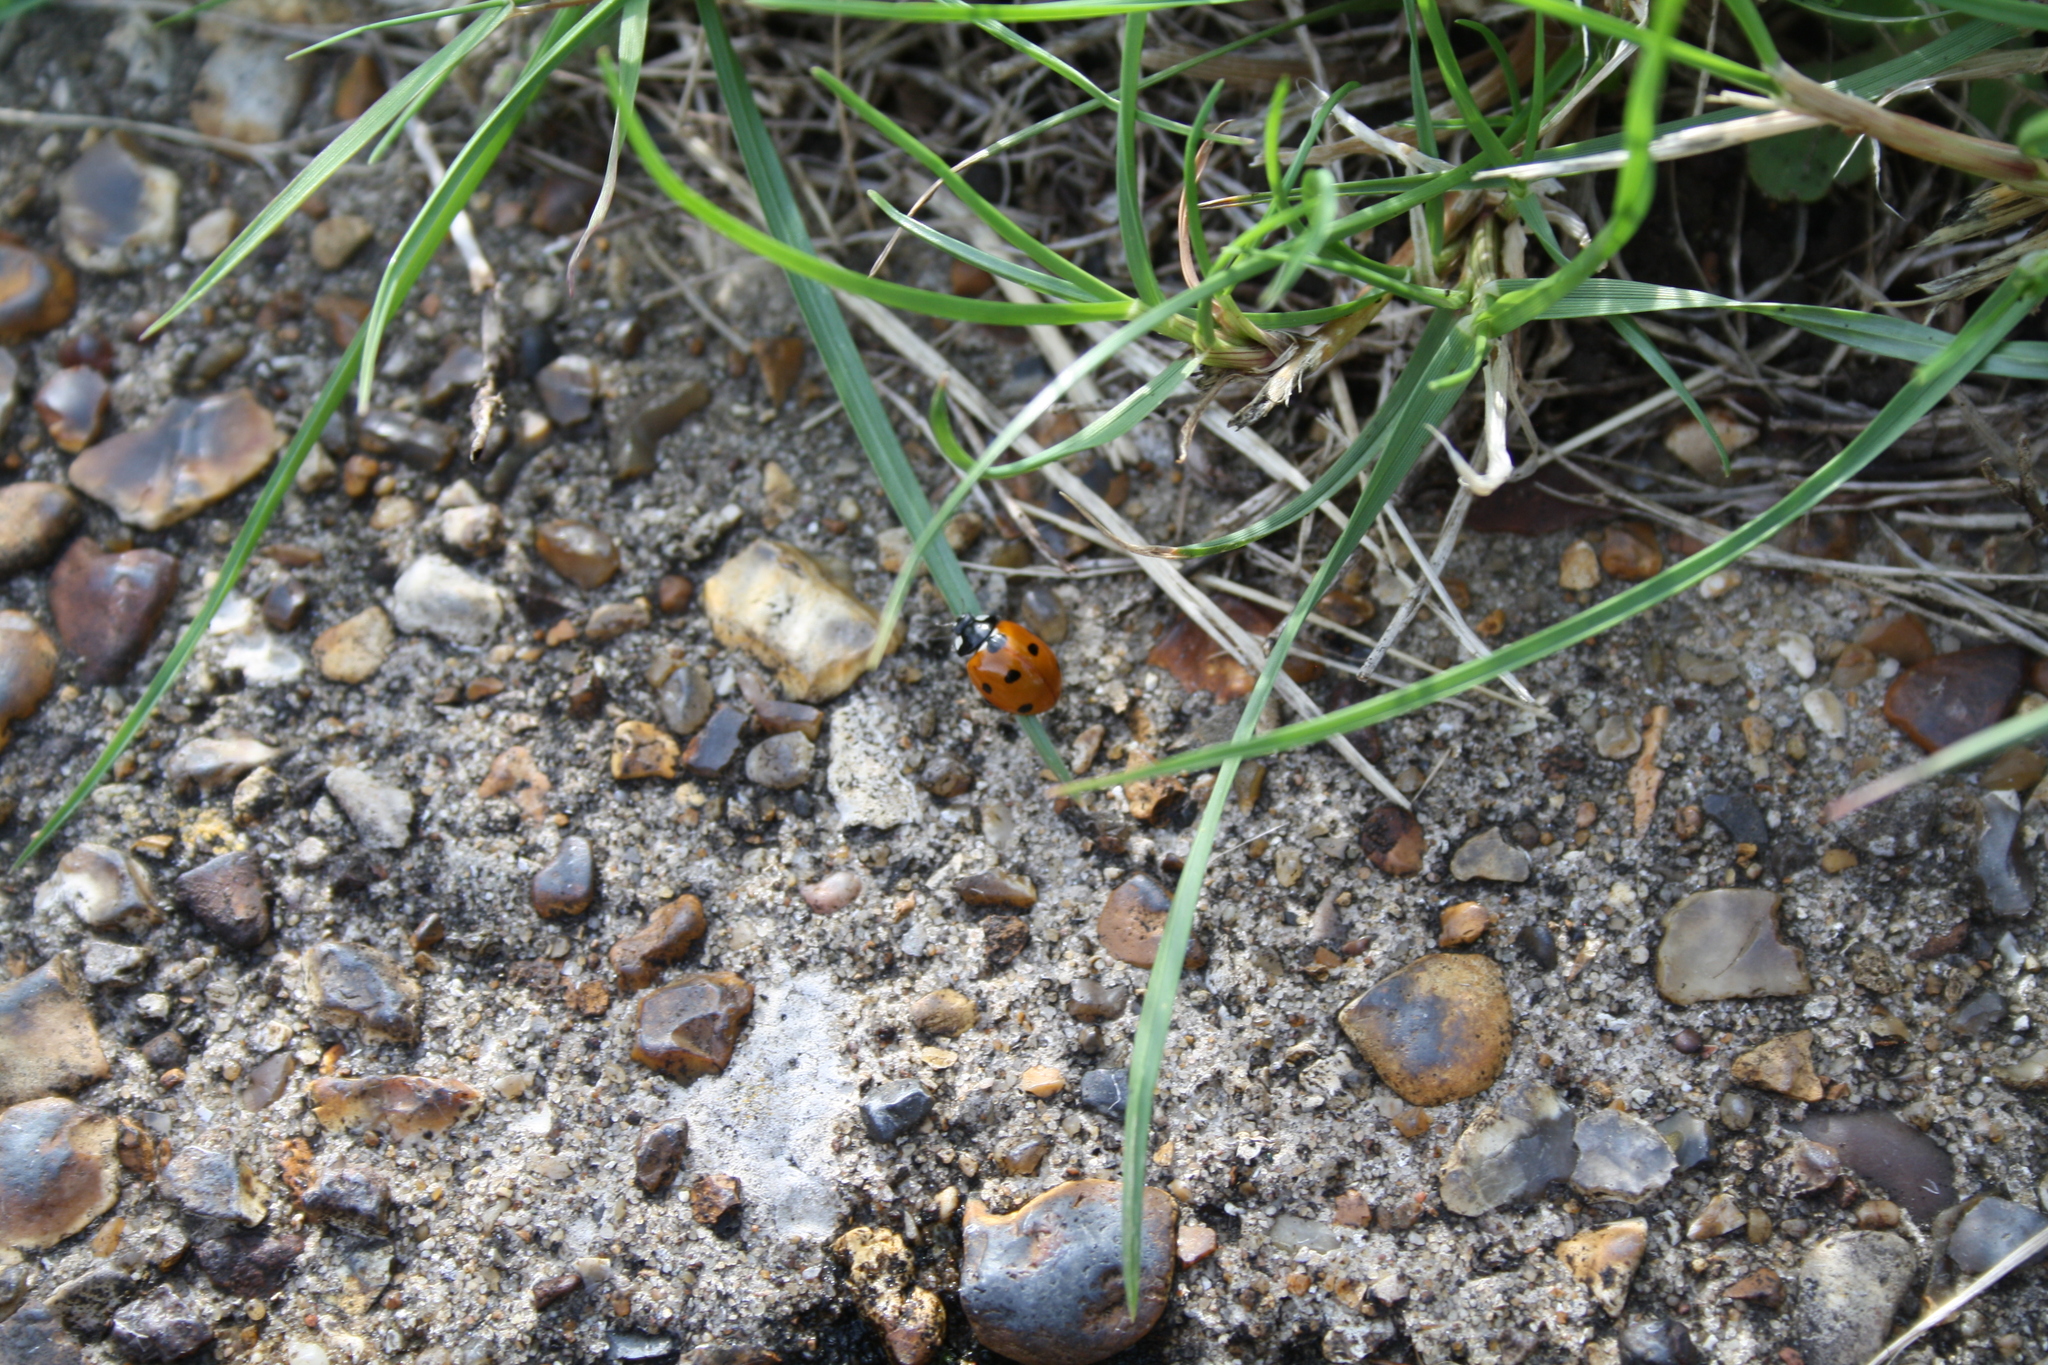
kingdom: Animalia
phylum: Arthropoda
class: Insecta
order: Coleoptera
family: Coccinellidae
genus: Coccinella
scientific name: Coccinella septempunctata
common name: Sevenspotted lady beetle
